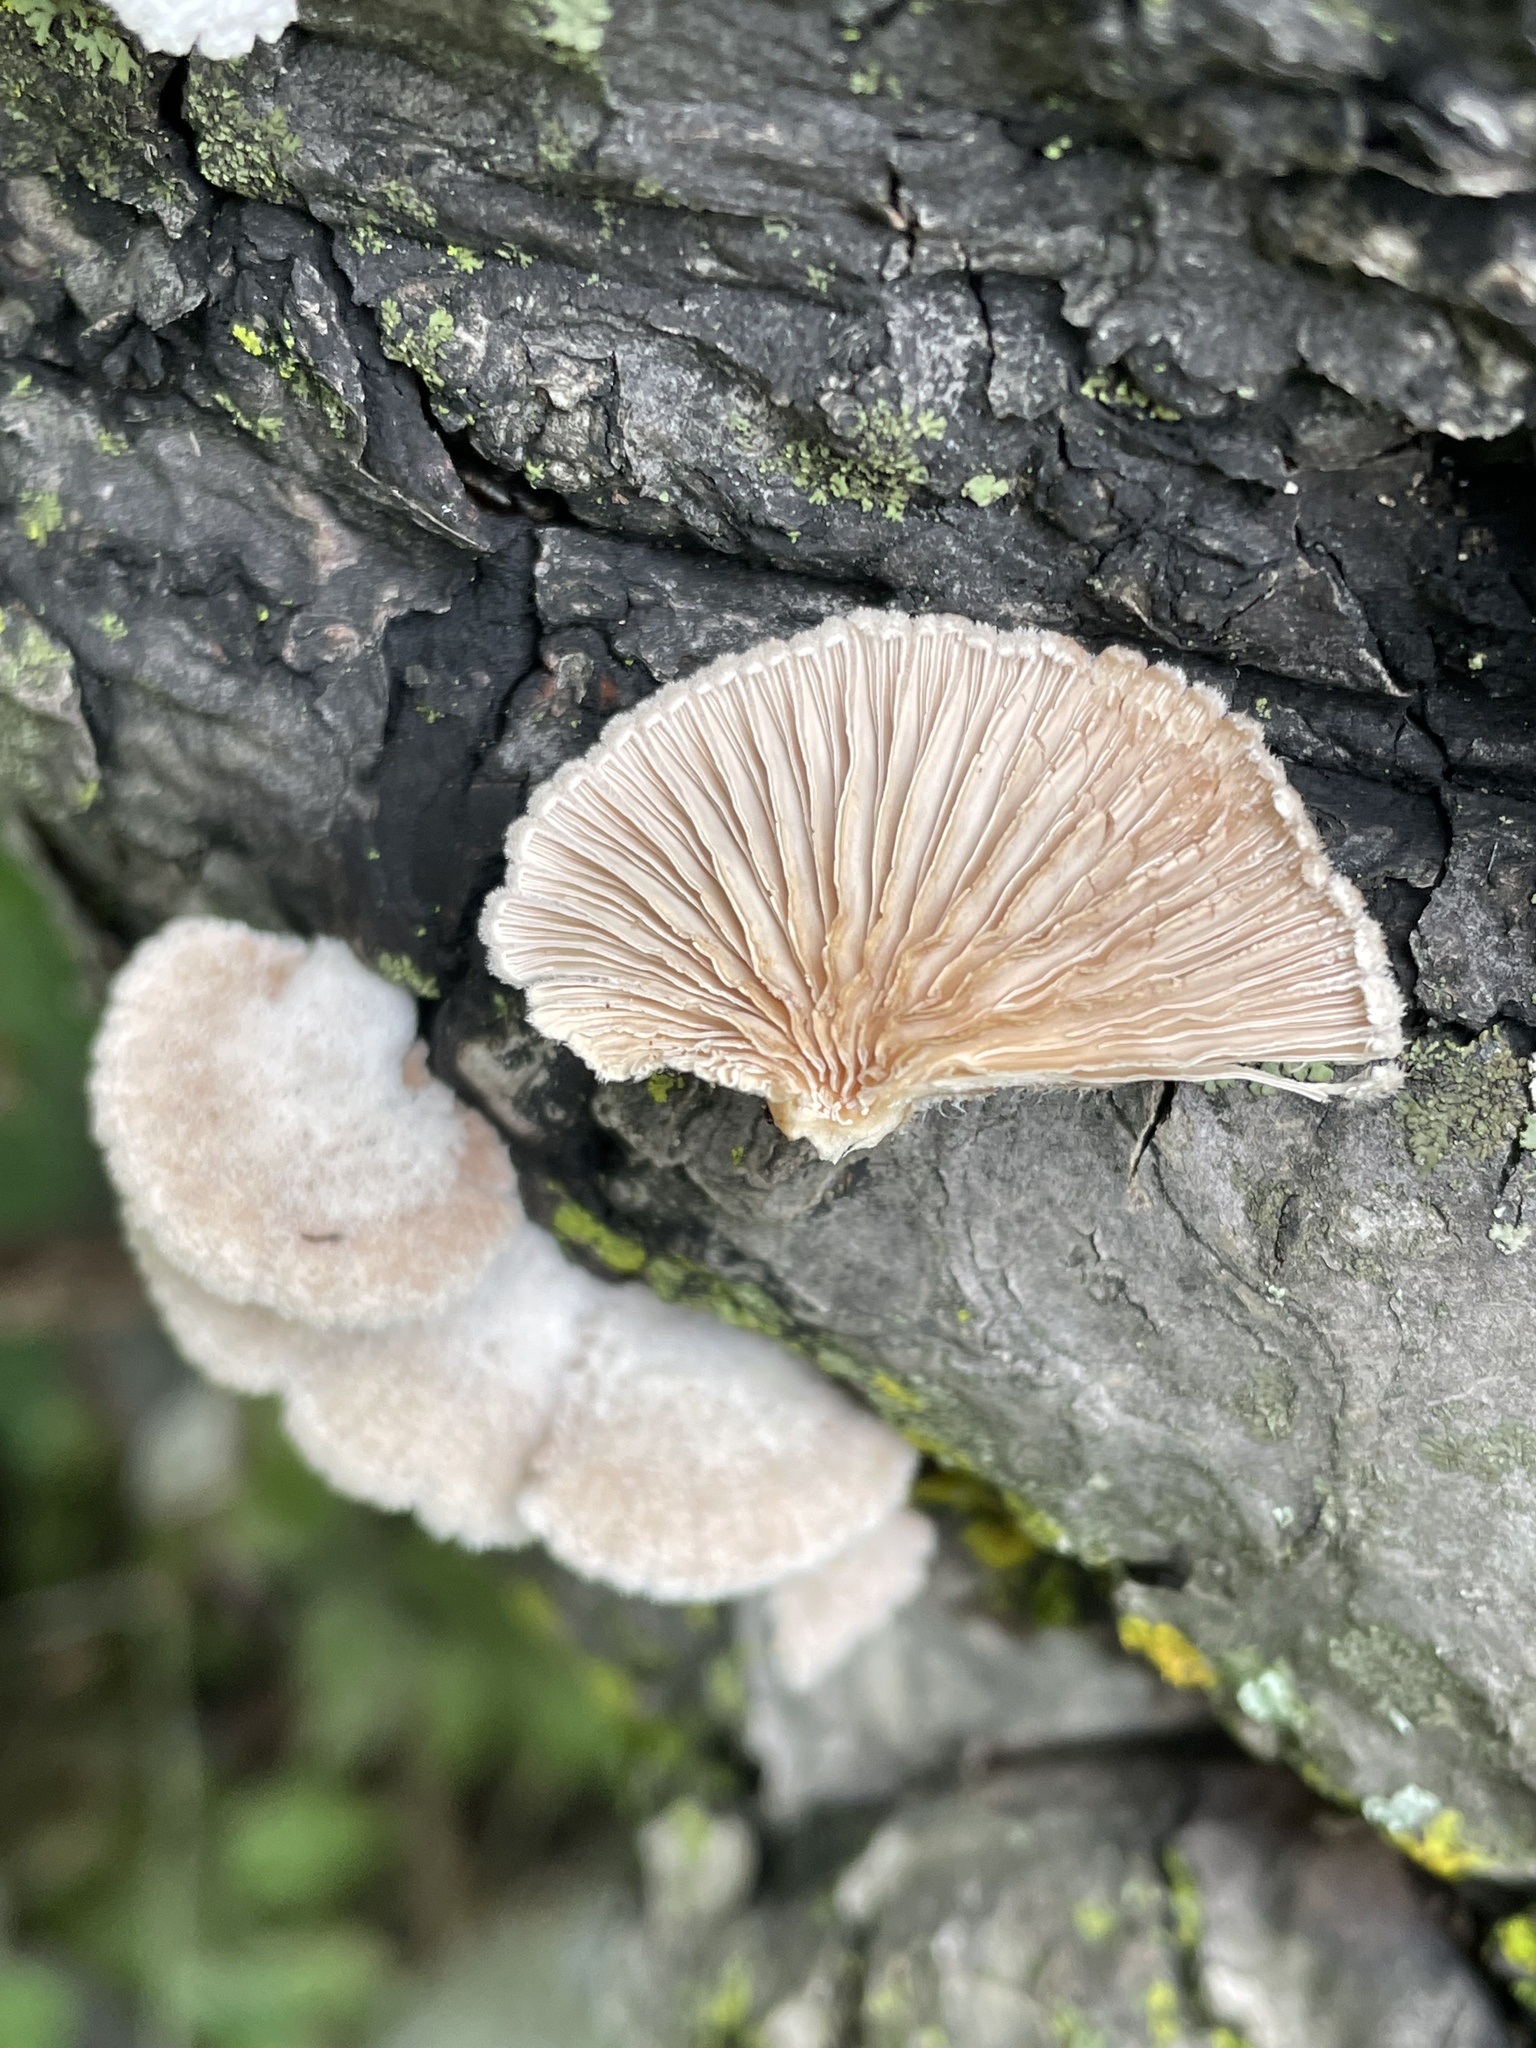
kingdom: Fungi
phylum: Basidiomycota
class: Agaricomycetes
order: Agaricales
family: Schizophyllaceae
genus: Schizophyllum
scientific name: Schizophyllum commune
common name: Common porecrust
